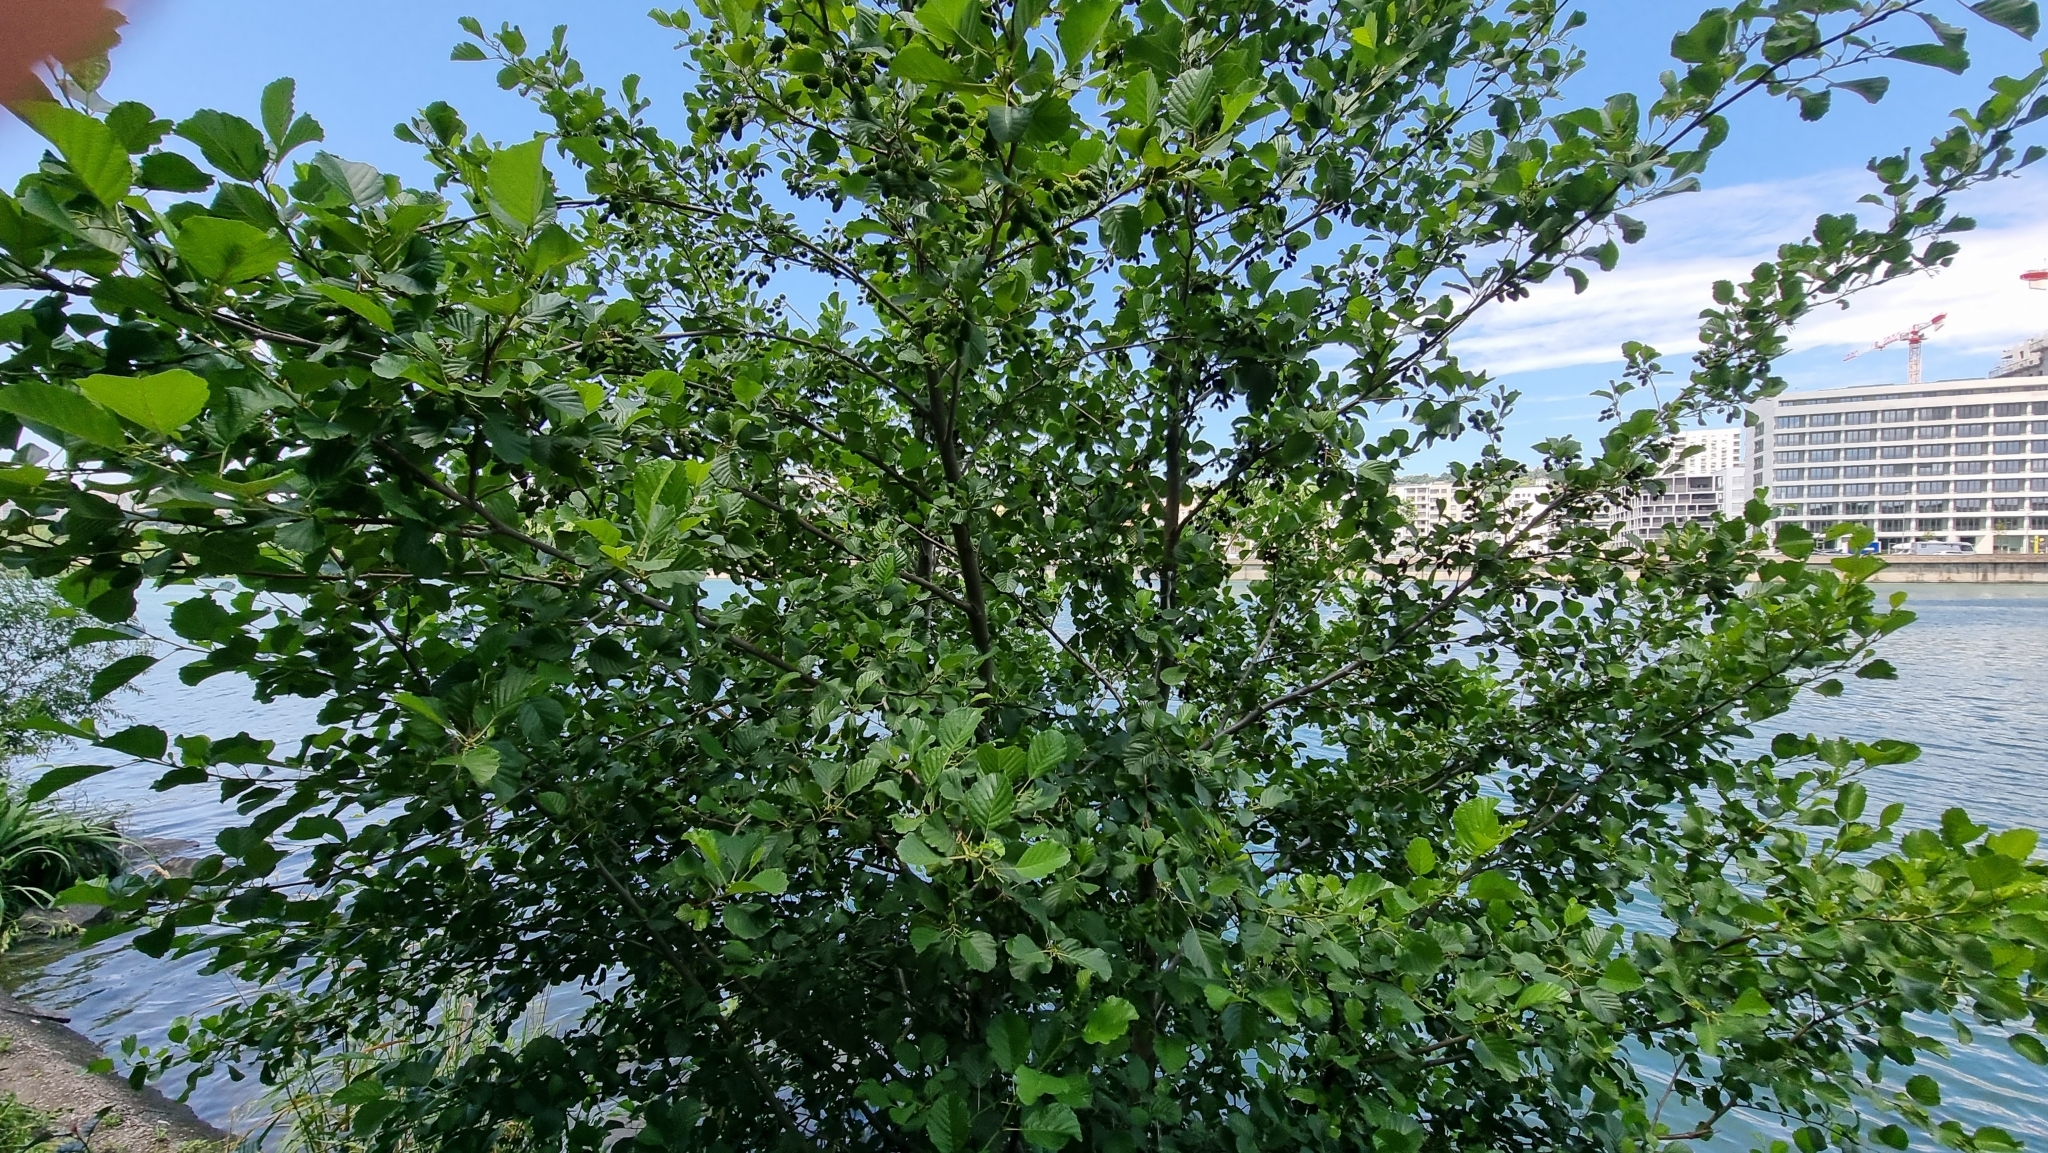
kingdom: Plantae
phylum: Tracheophyta
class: Magnoliopsida
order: Fagales
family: Betulaceae
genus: Alnus
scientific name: Alnus glutinosa
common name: Black alder
